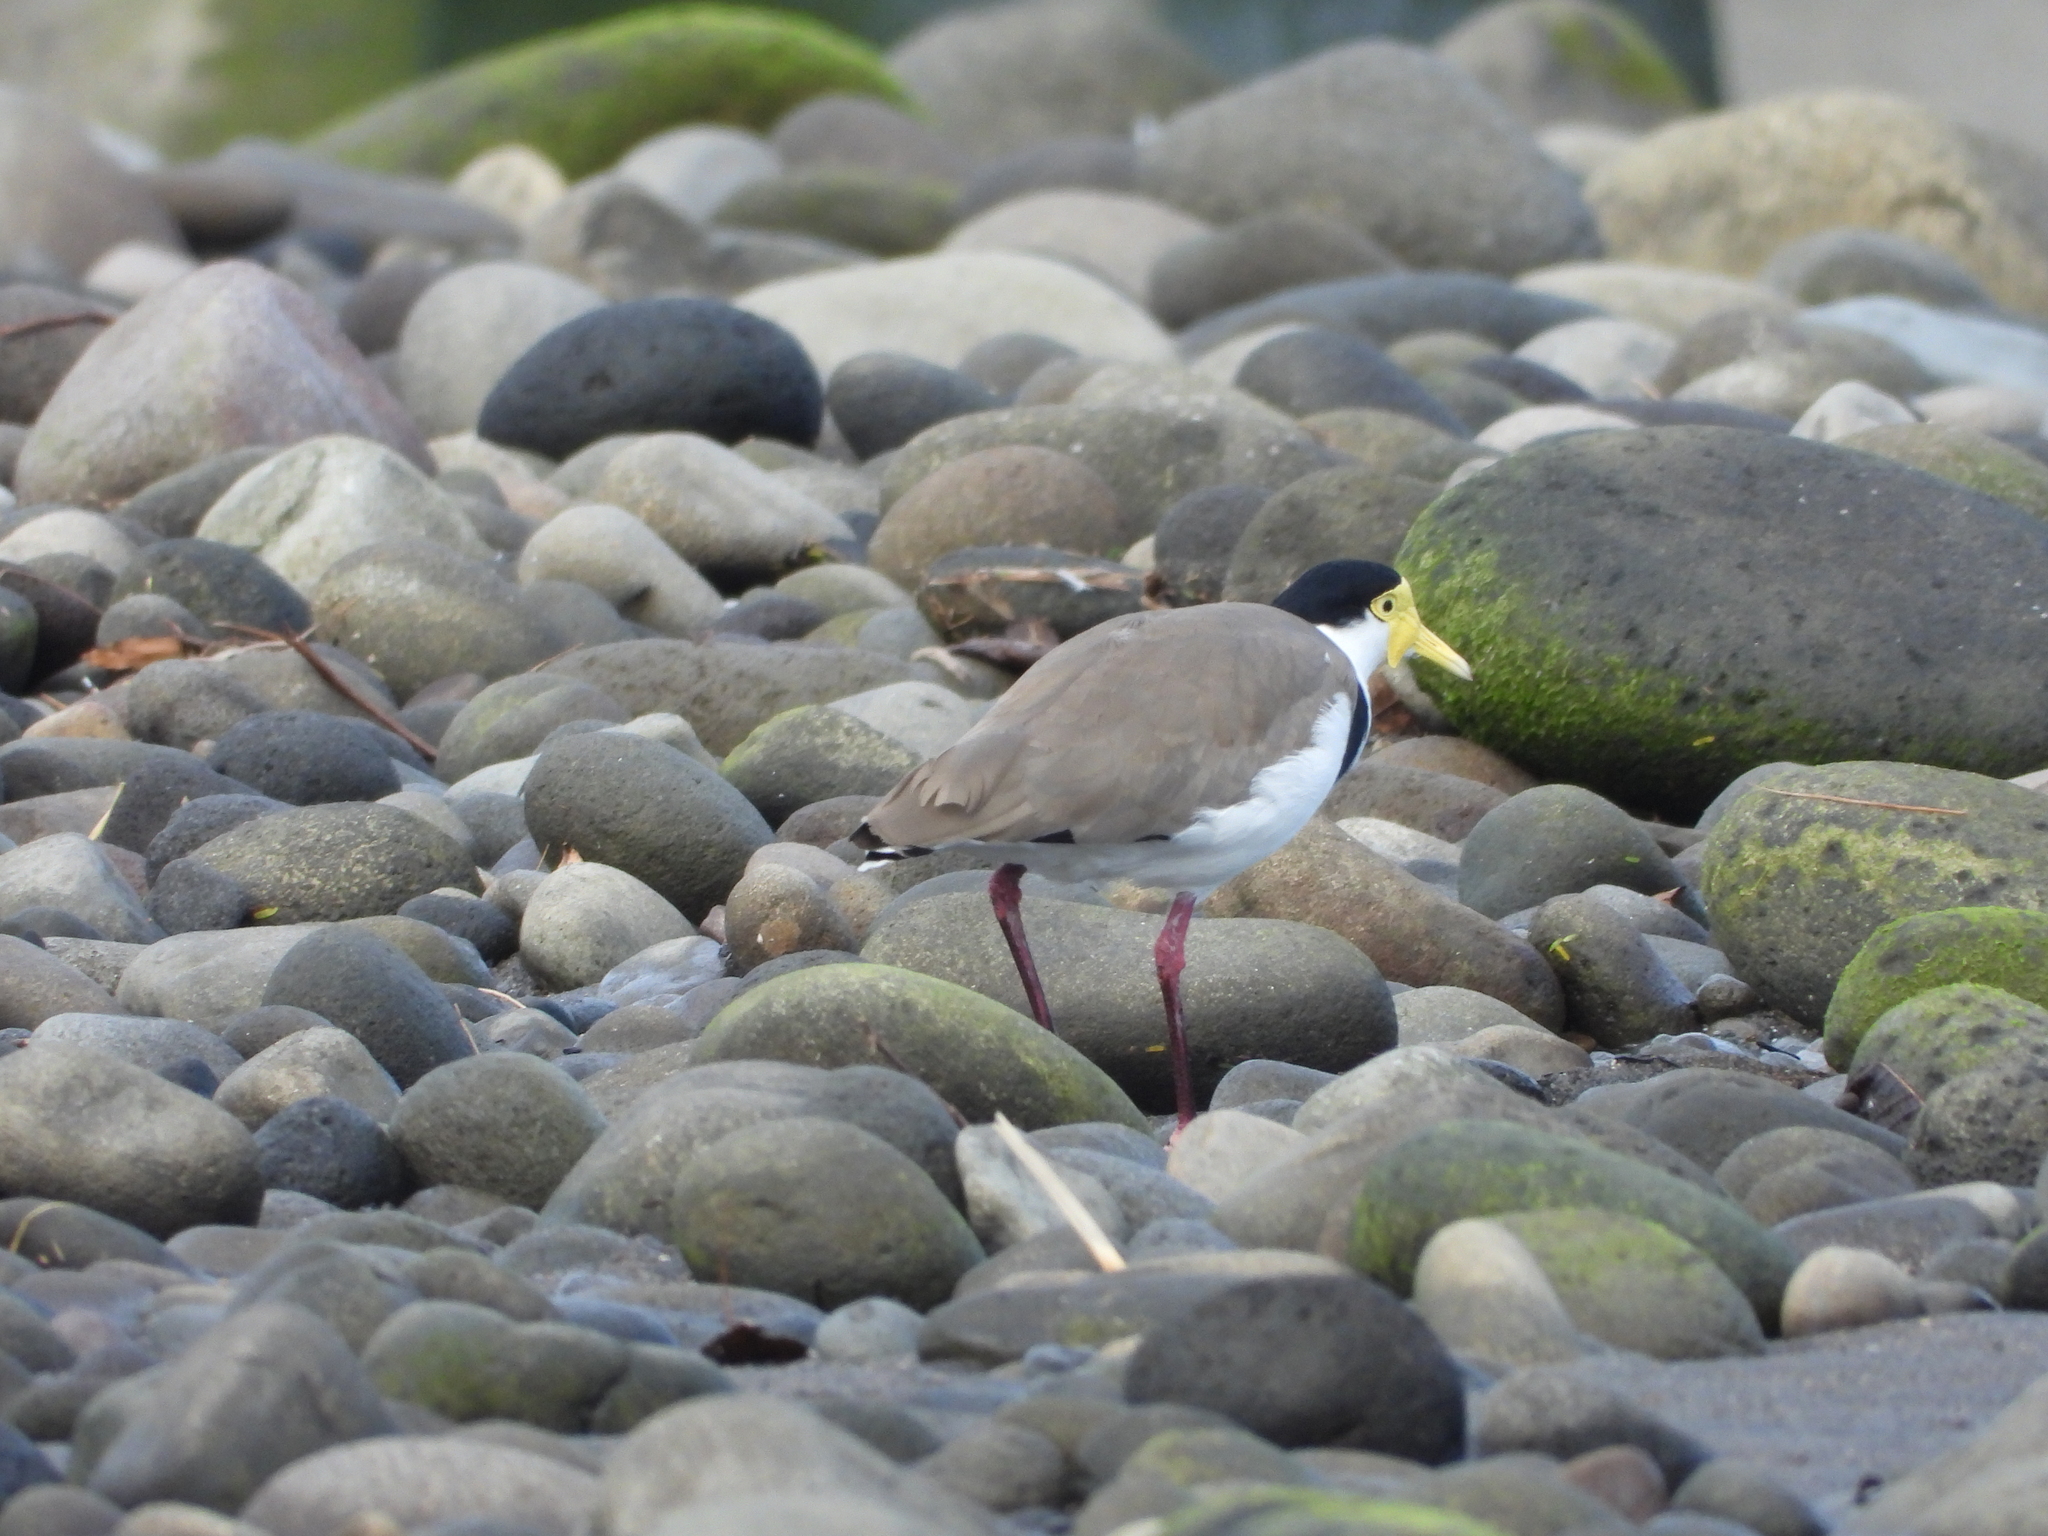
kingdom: Animalia
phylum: Chordata
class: Aves
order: Charadriiformes
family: Charadriidae
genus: Vanellus
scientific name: Vanellus miles
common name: Masked lapwing
